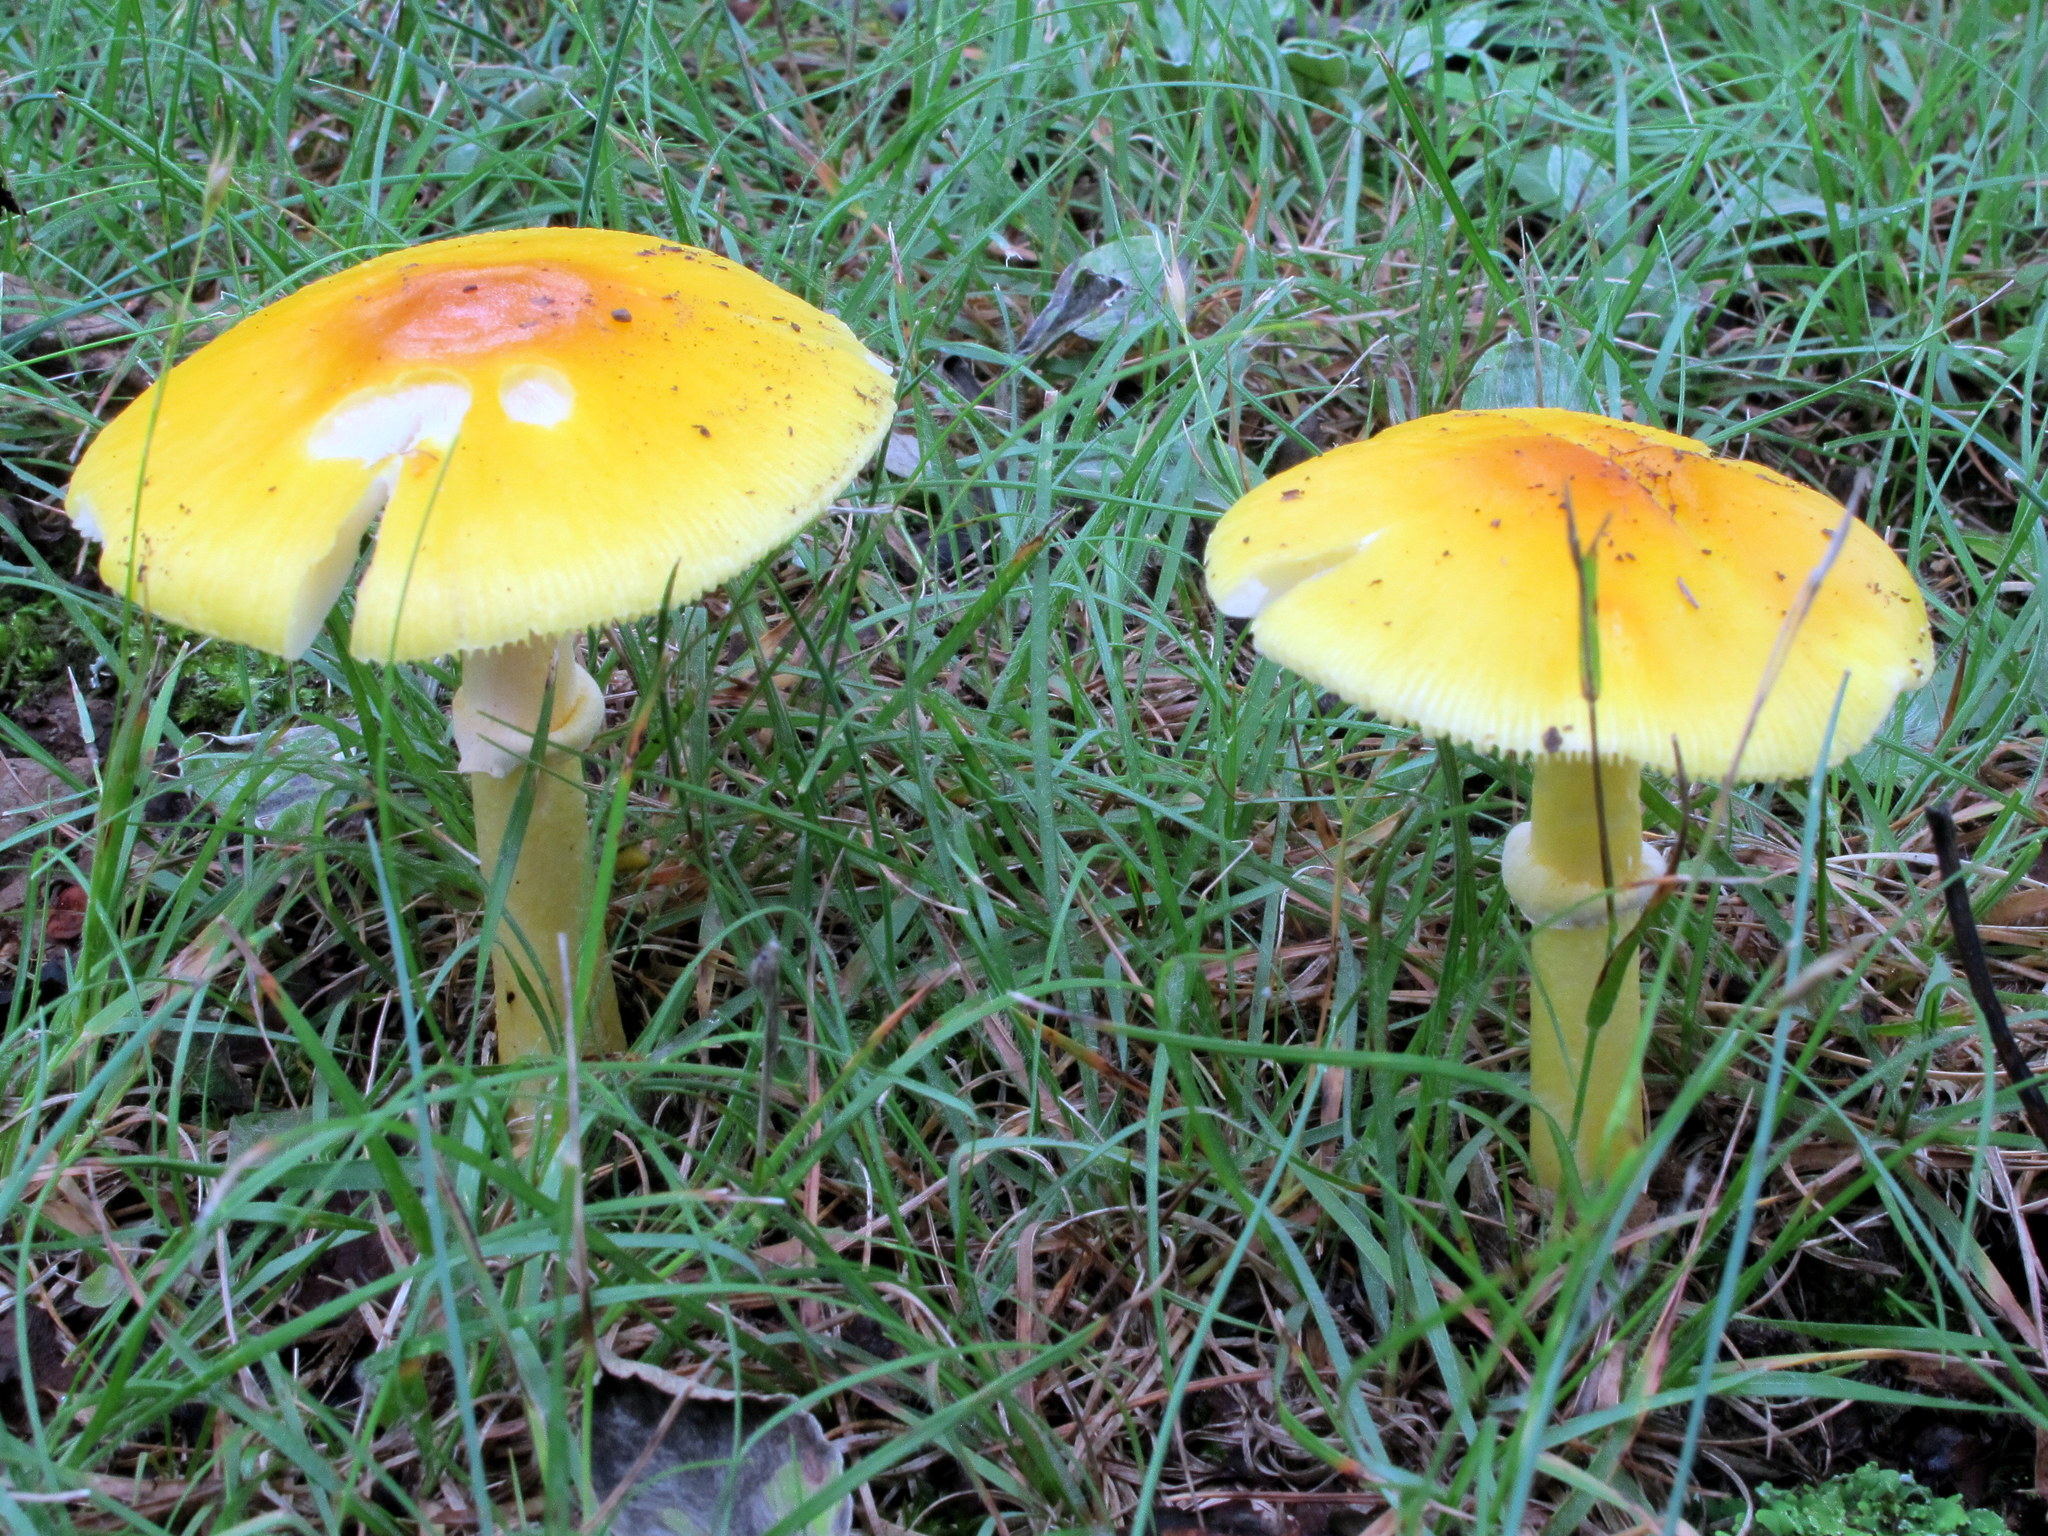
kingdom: Fungi
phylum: Basidiomycota
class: Agaricomycetes
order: Agaricales
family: Amanitaceae
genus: Amanita
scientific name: Amanita flavoconia
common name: Yellow patches
